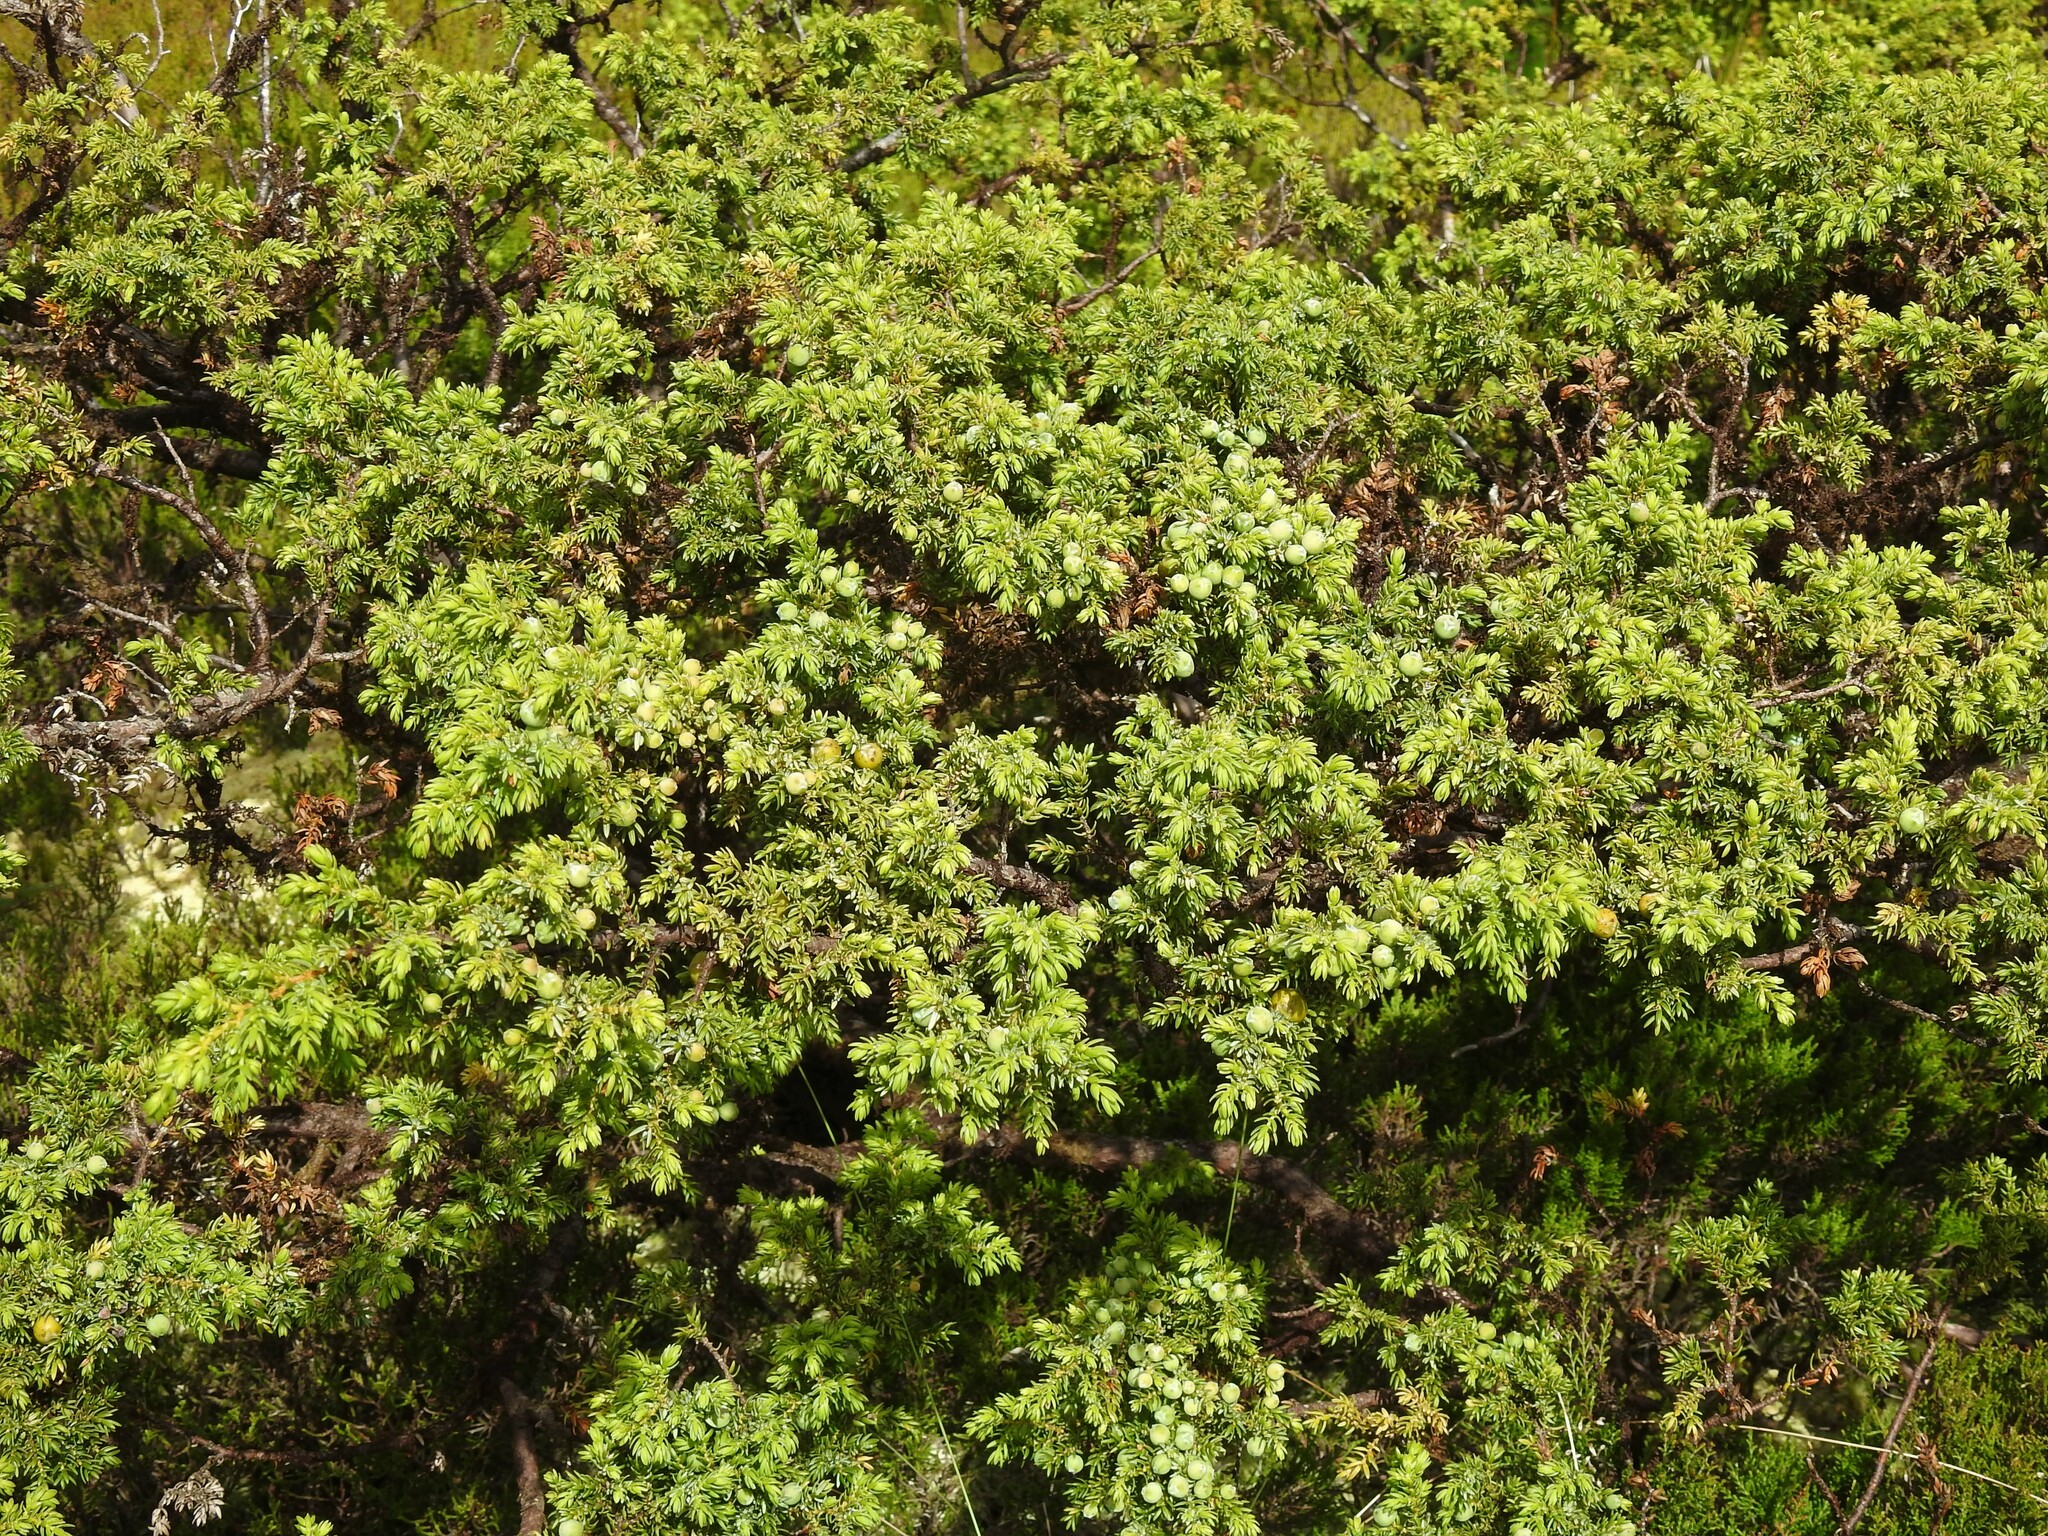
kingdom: Plantae
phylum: Tracheophyta
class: Pinopsida
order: Pinales
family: Cupressaceae
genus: Juniperus
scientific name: Juniperus brevifolia
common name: Azores juniper
